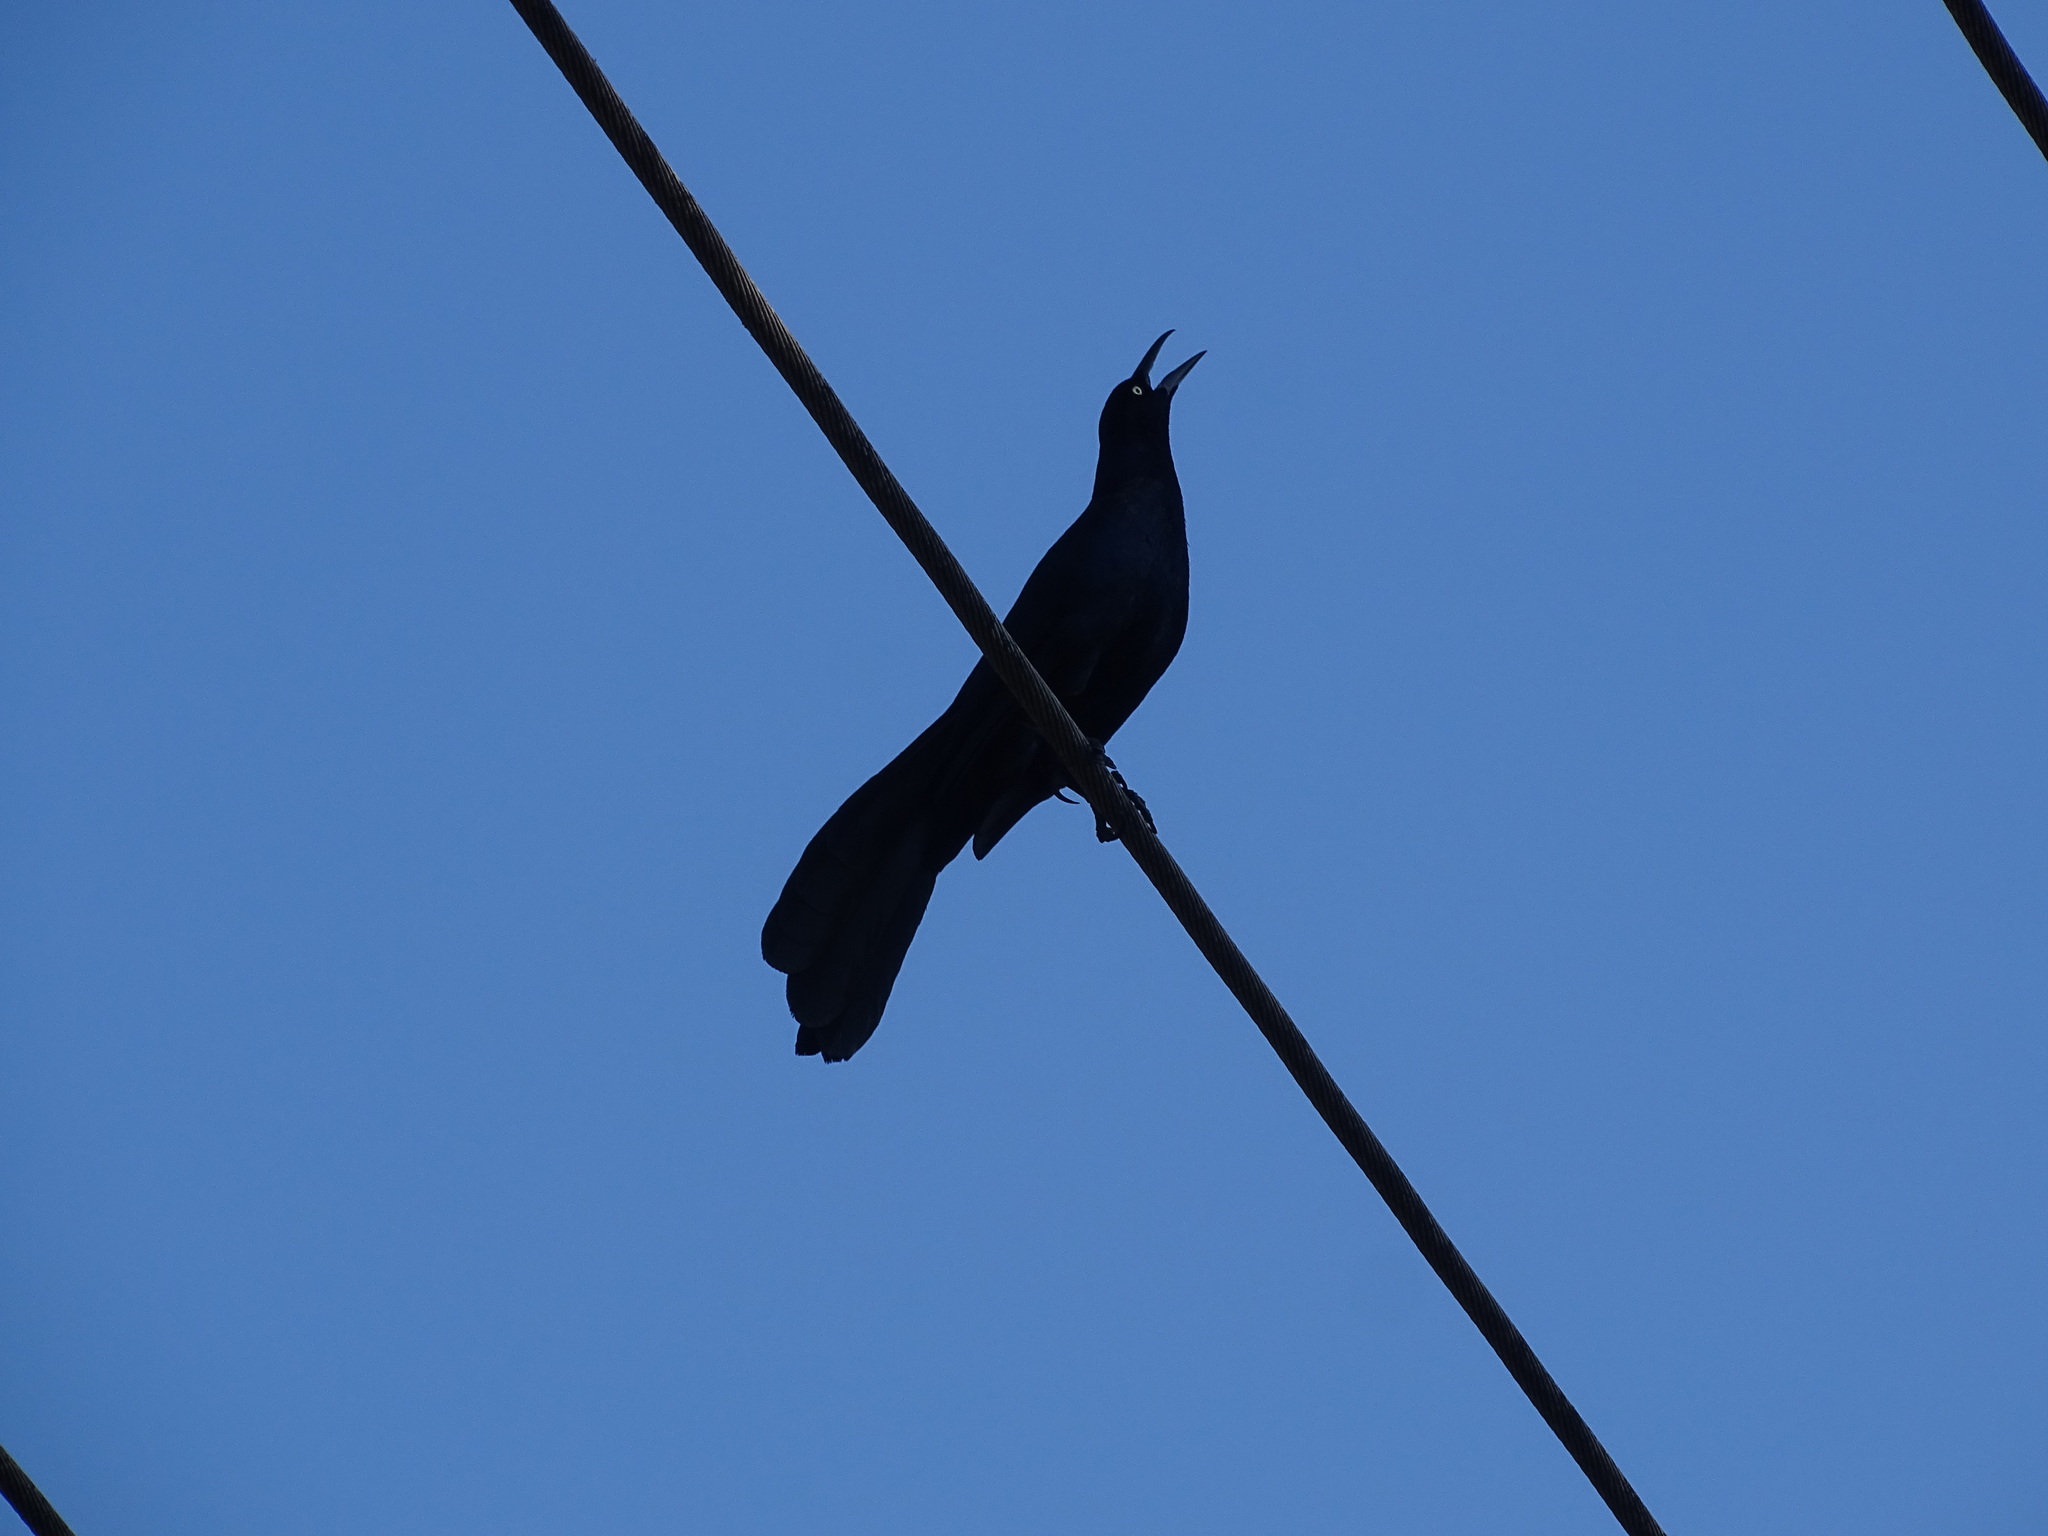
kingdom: Animalia
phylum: Chordata
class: Aves
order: Passeriformes
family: Icteridae
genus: Quiscalus
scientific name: Quiscalus mexicanus
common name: Great-tailed grackle
